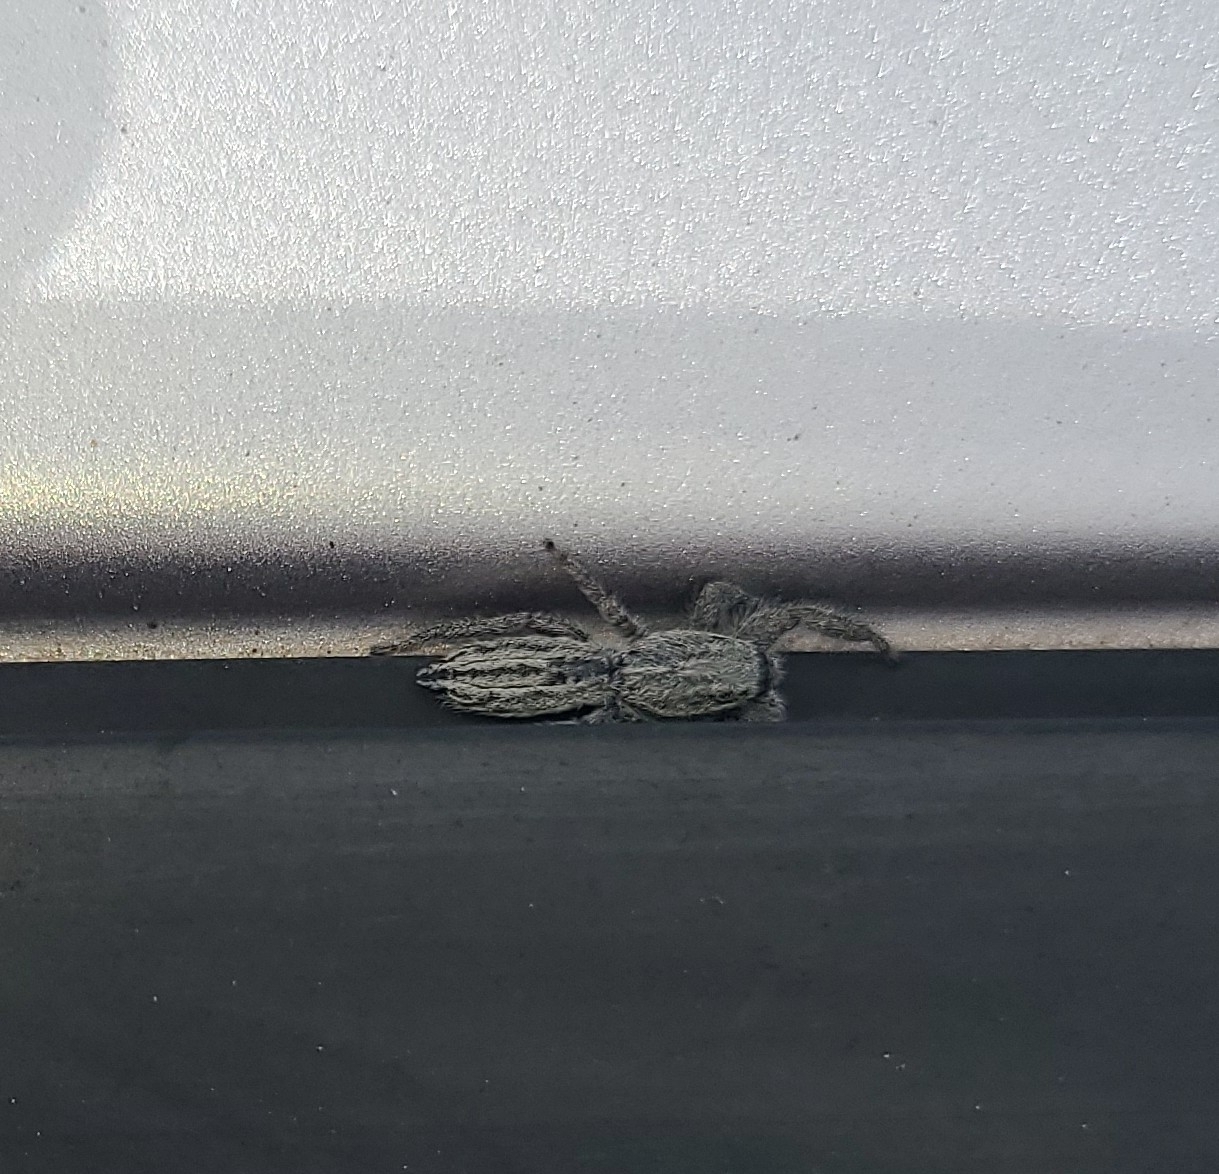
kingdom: Animalia
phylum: Arthropoda
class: Arachnida
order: Araneae
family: Salticidae
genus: Holoplatys
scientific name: Holoplatys apressus
